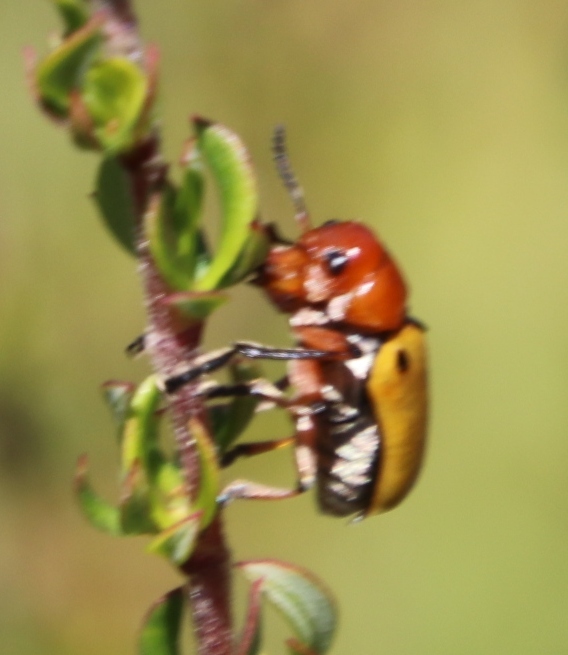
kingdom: Animalia
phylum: Arthropoda
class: Insecta
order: Coleoptera
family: Chrysomelidae
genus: Antipus
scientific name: Antipus rufus
